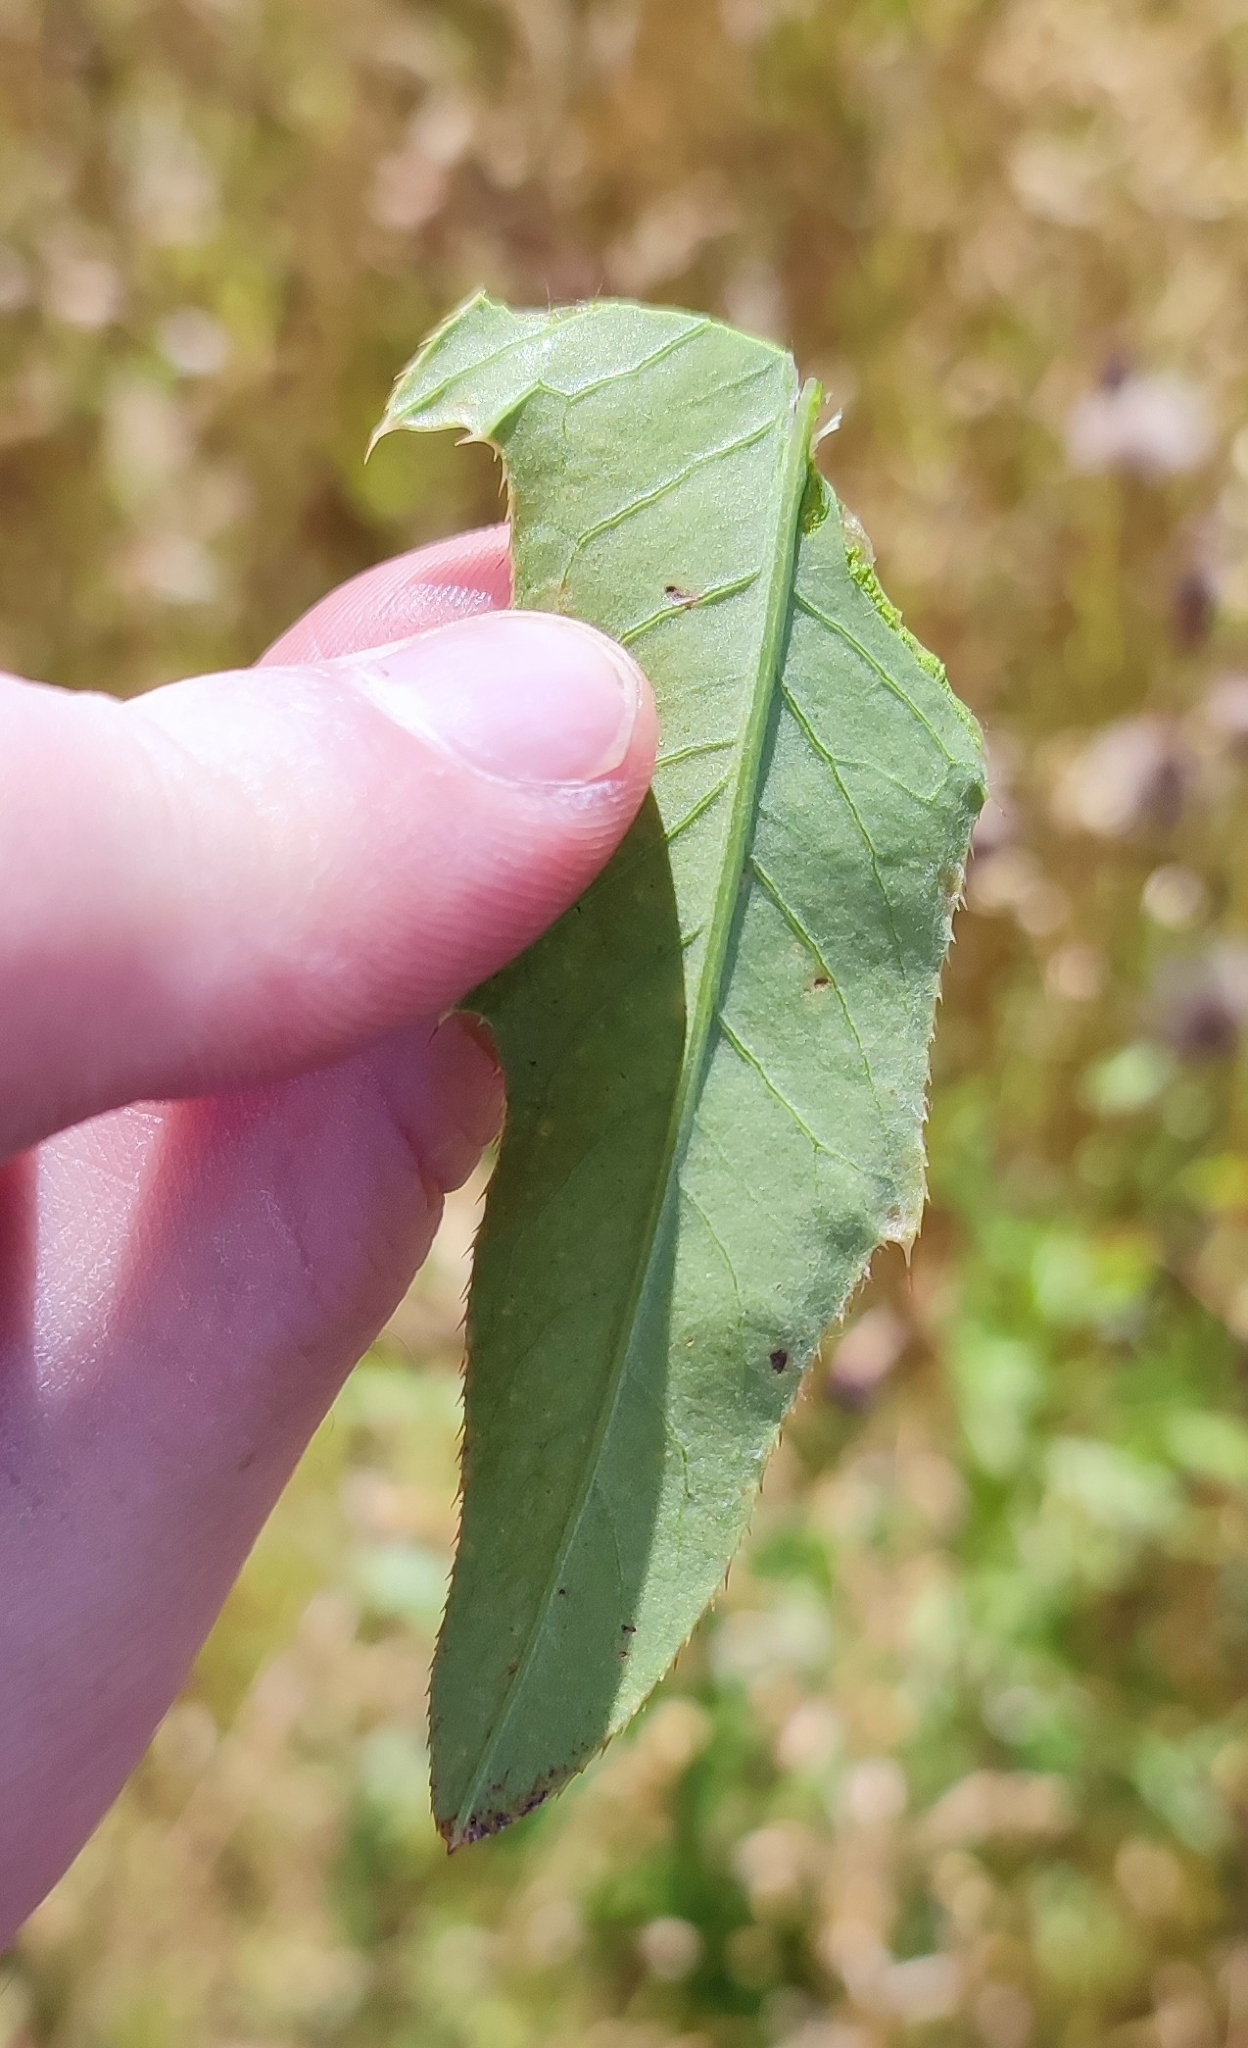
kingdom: Plantae
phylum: Tracheophyta
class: Magnoliopsida
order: Asterales
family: Asteraceae
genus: Cirsium
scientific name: Cirsium arvense
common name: Creeping thistle
